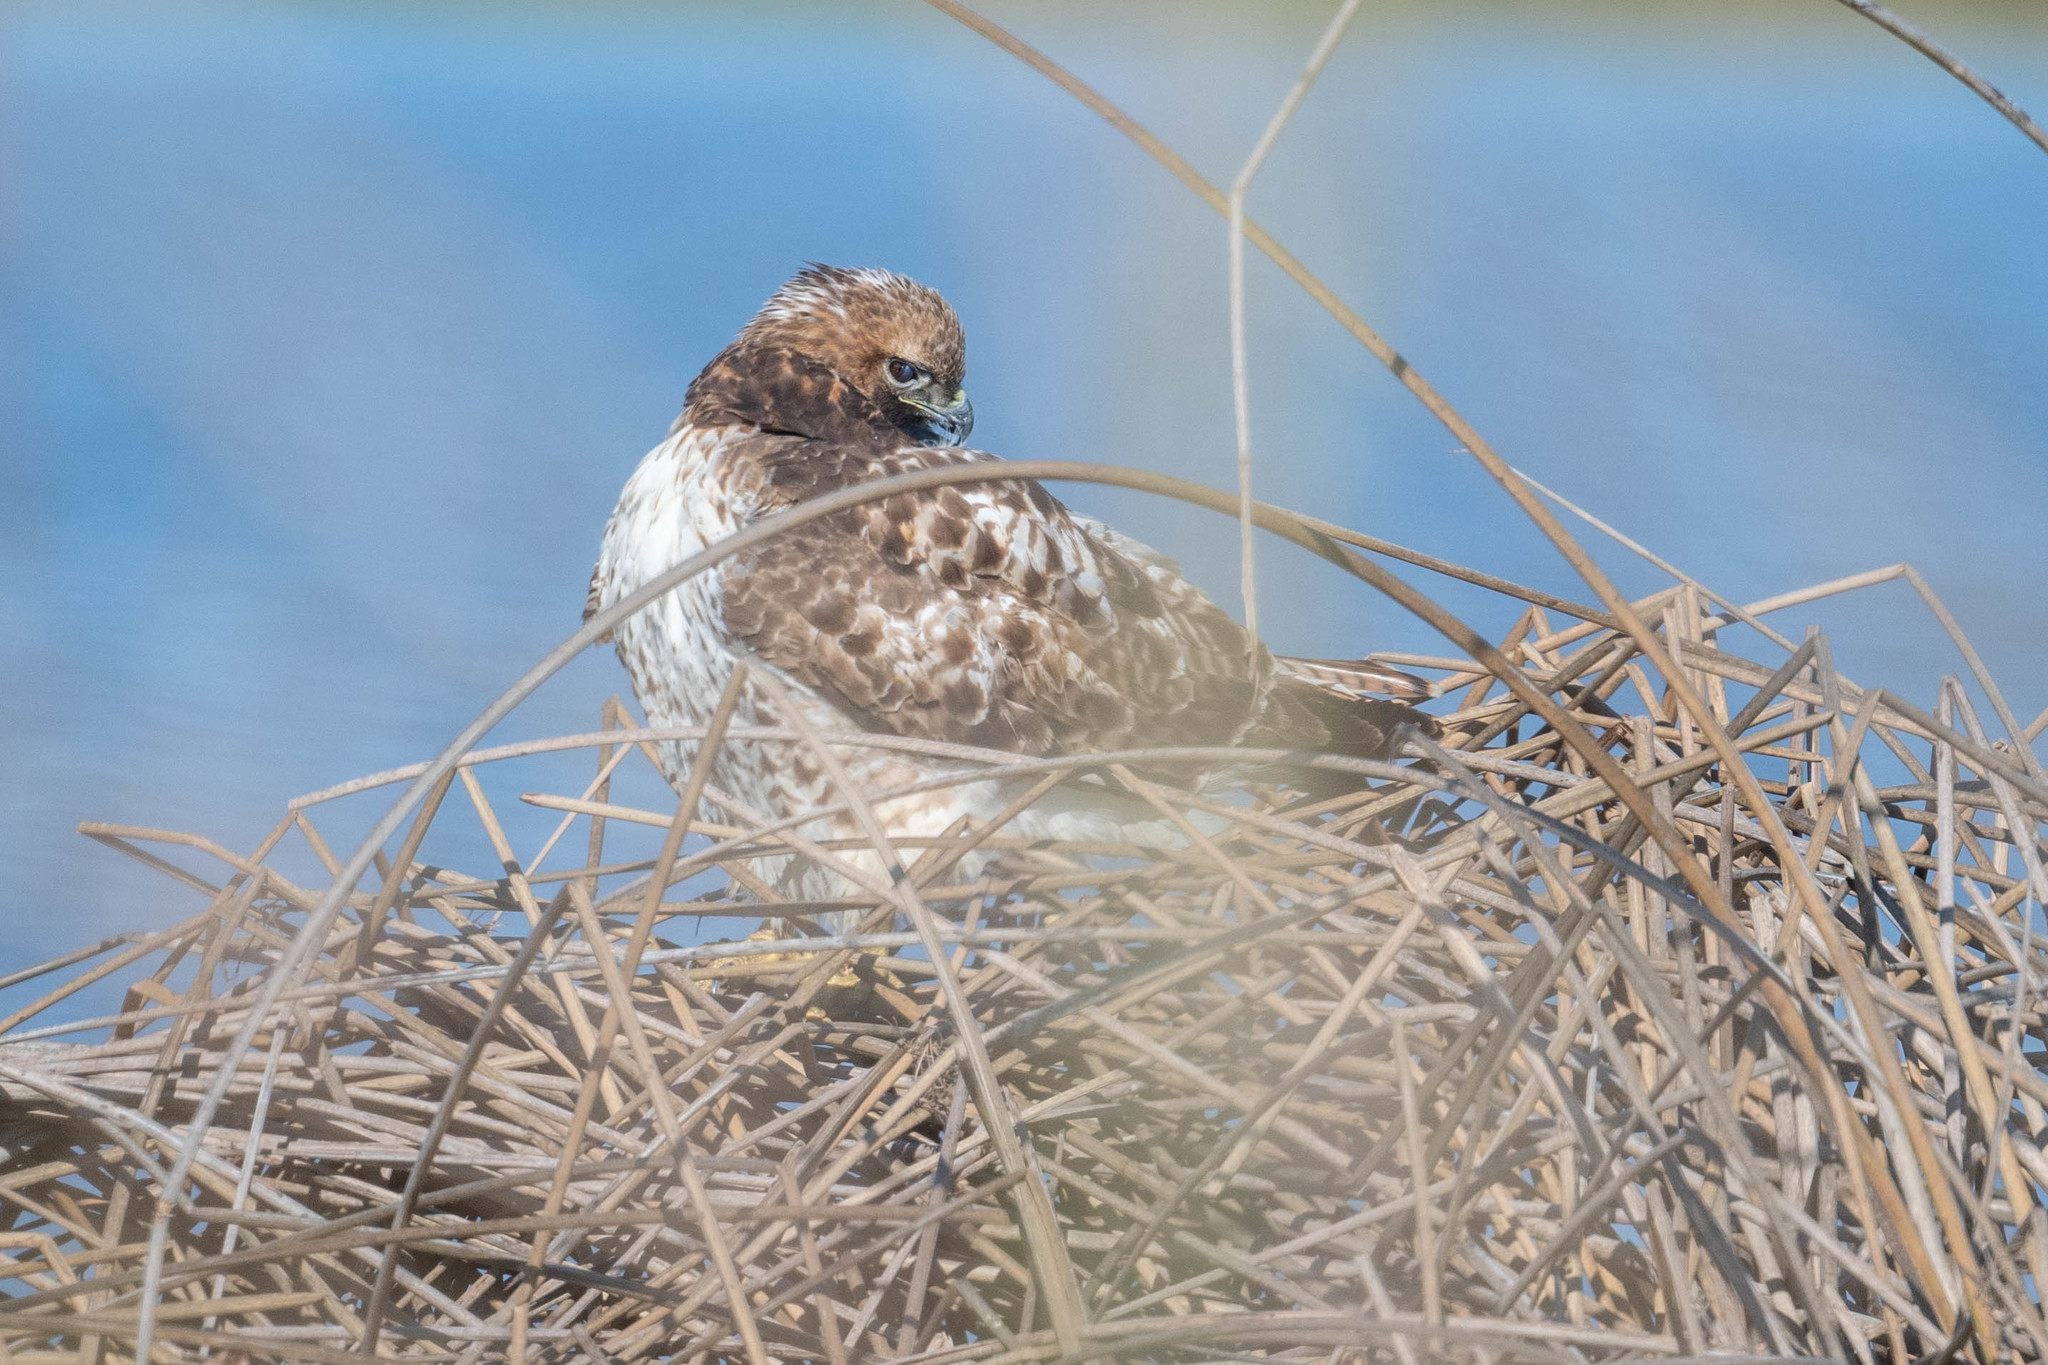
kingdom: Animalia
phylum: Chordata
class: Aves
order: Accipitriformes
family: Accipitridae
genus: Buteo
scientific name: Buteo jamaicensis
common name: Red-tailed hawk
